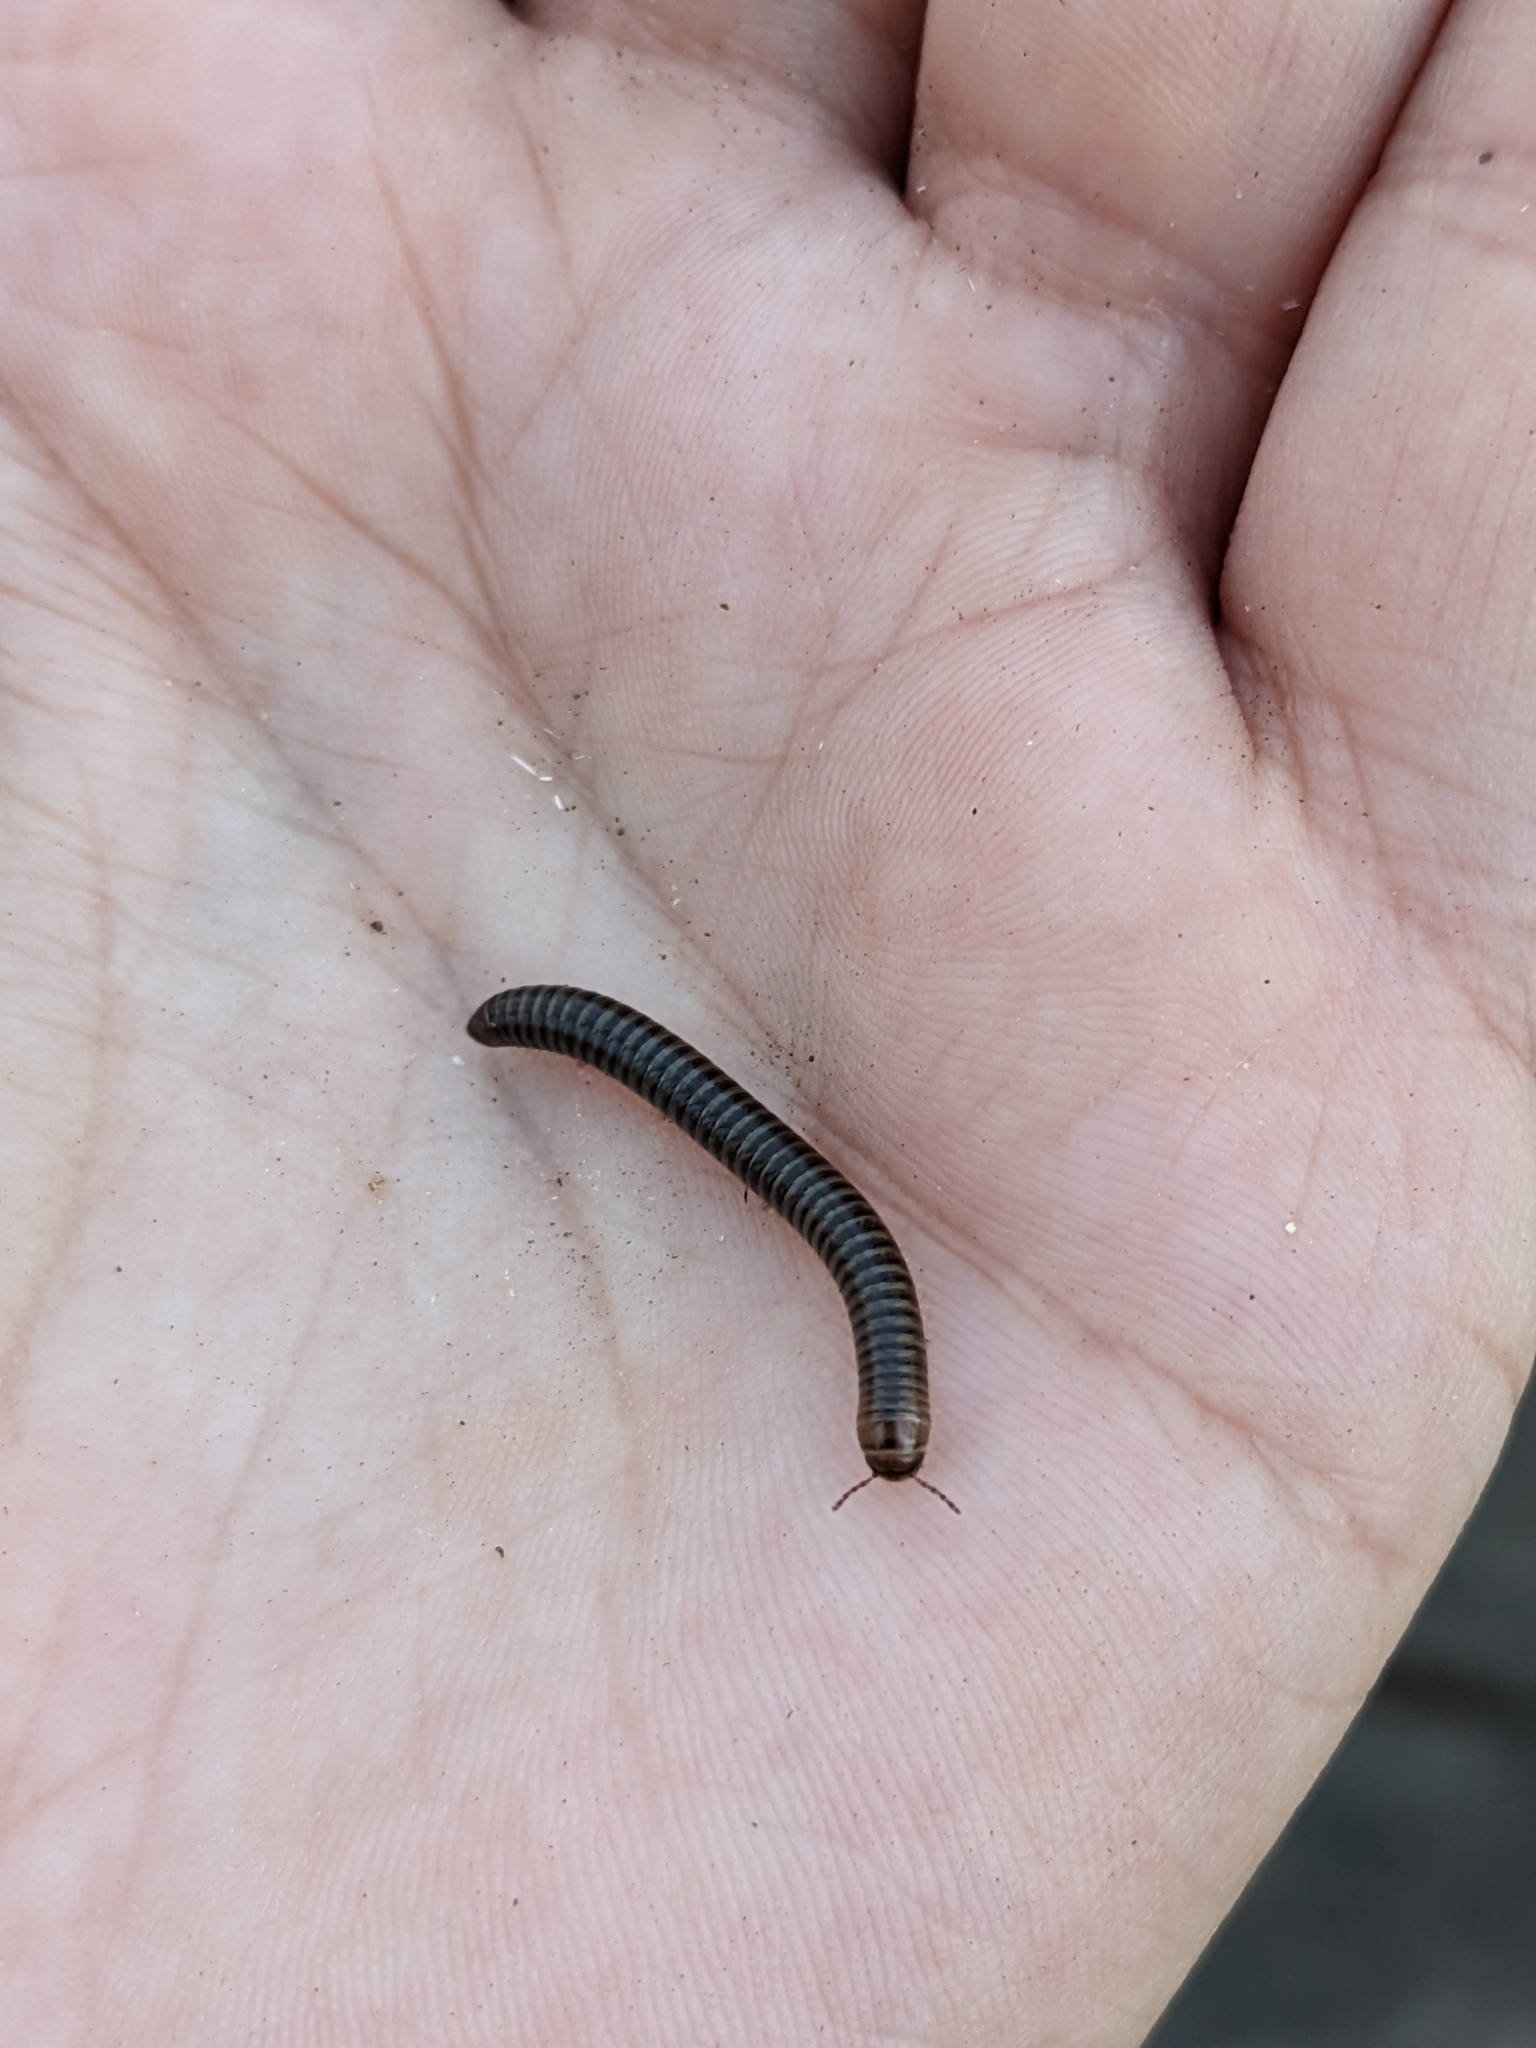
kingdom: Animalia
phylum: Arthropoda
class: Diplopoda
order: Julida
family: Julidae
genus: Cylindroiulus
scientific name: Cylindroiulus caeruleocinctus
